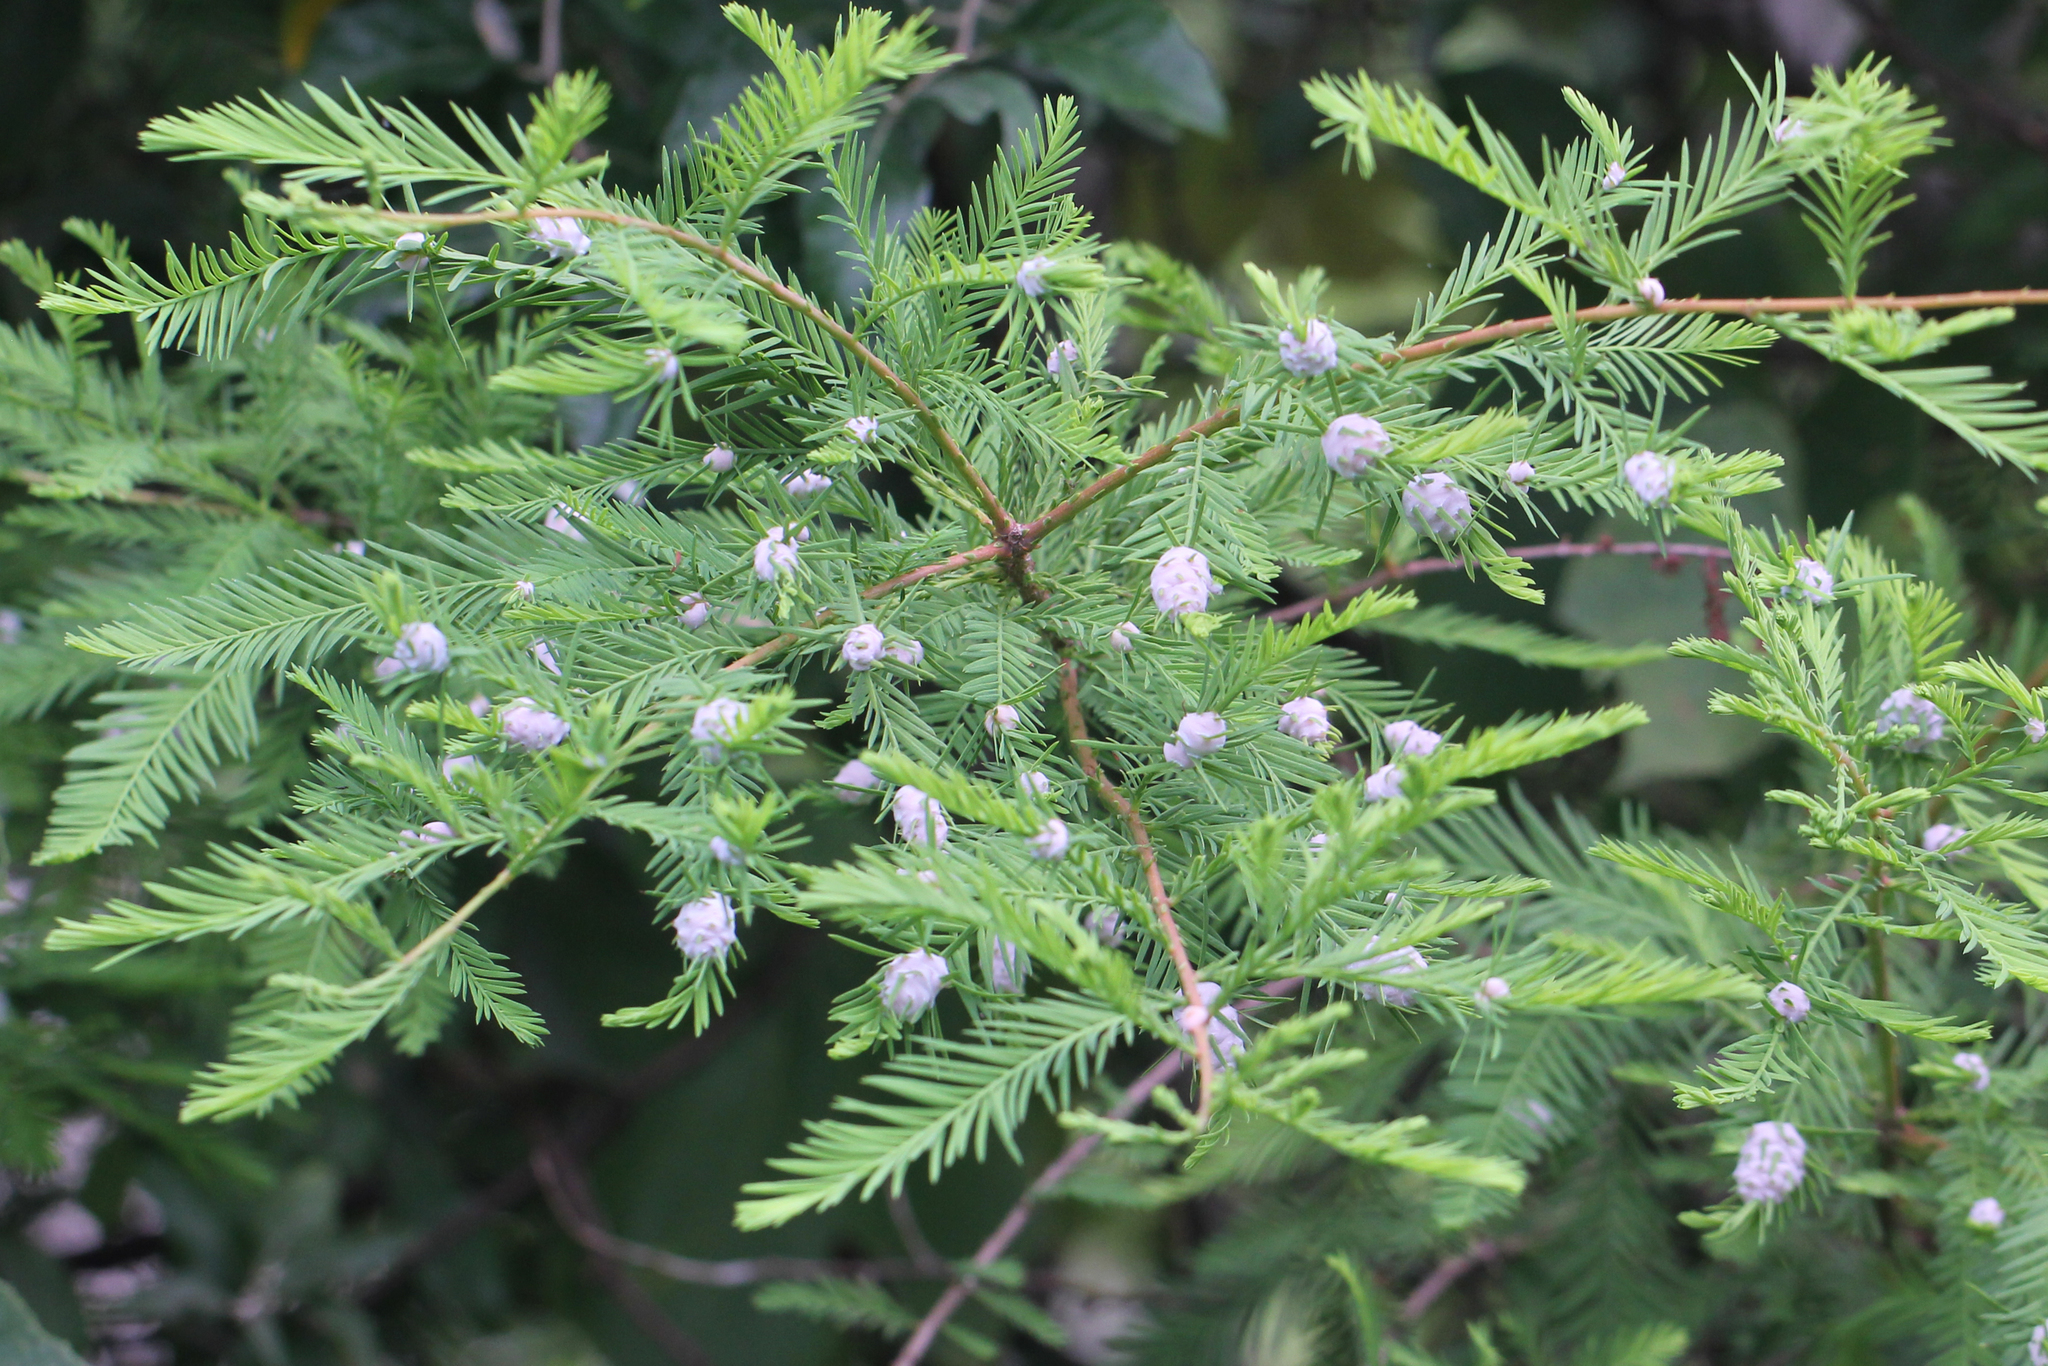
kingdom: Animalia
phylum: Arthropoda
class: Insecta
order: Diptera
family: Cecidomyiidae
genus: Taxodiomyia
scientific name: Taxodiomyia cupressiananassa
